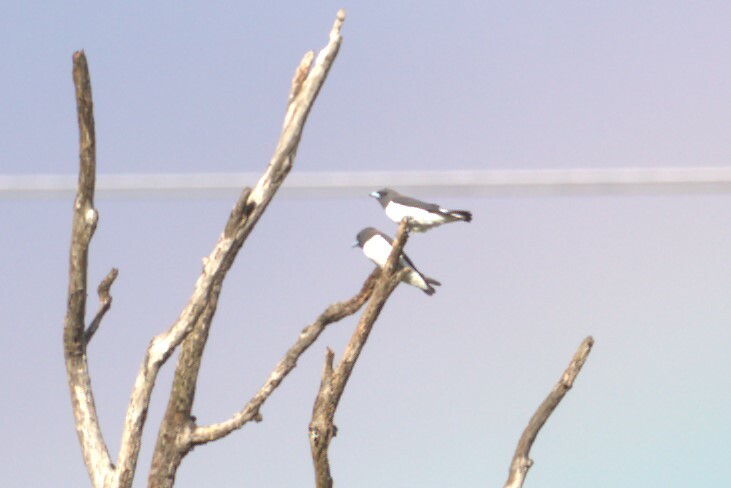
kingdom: Animalia
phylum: Chordata
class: Aves
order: Passeriformes
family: Artamidae
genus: Artamus
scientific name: Artamus leucoryn
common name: White-breasted woodswallow
